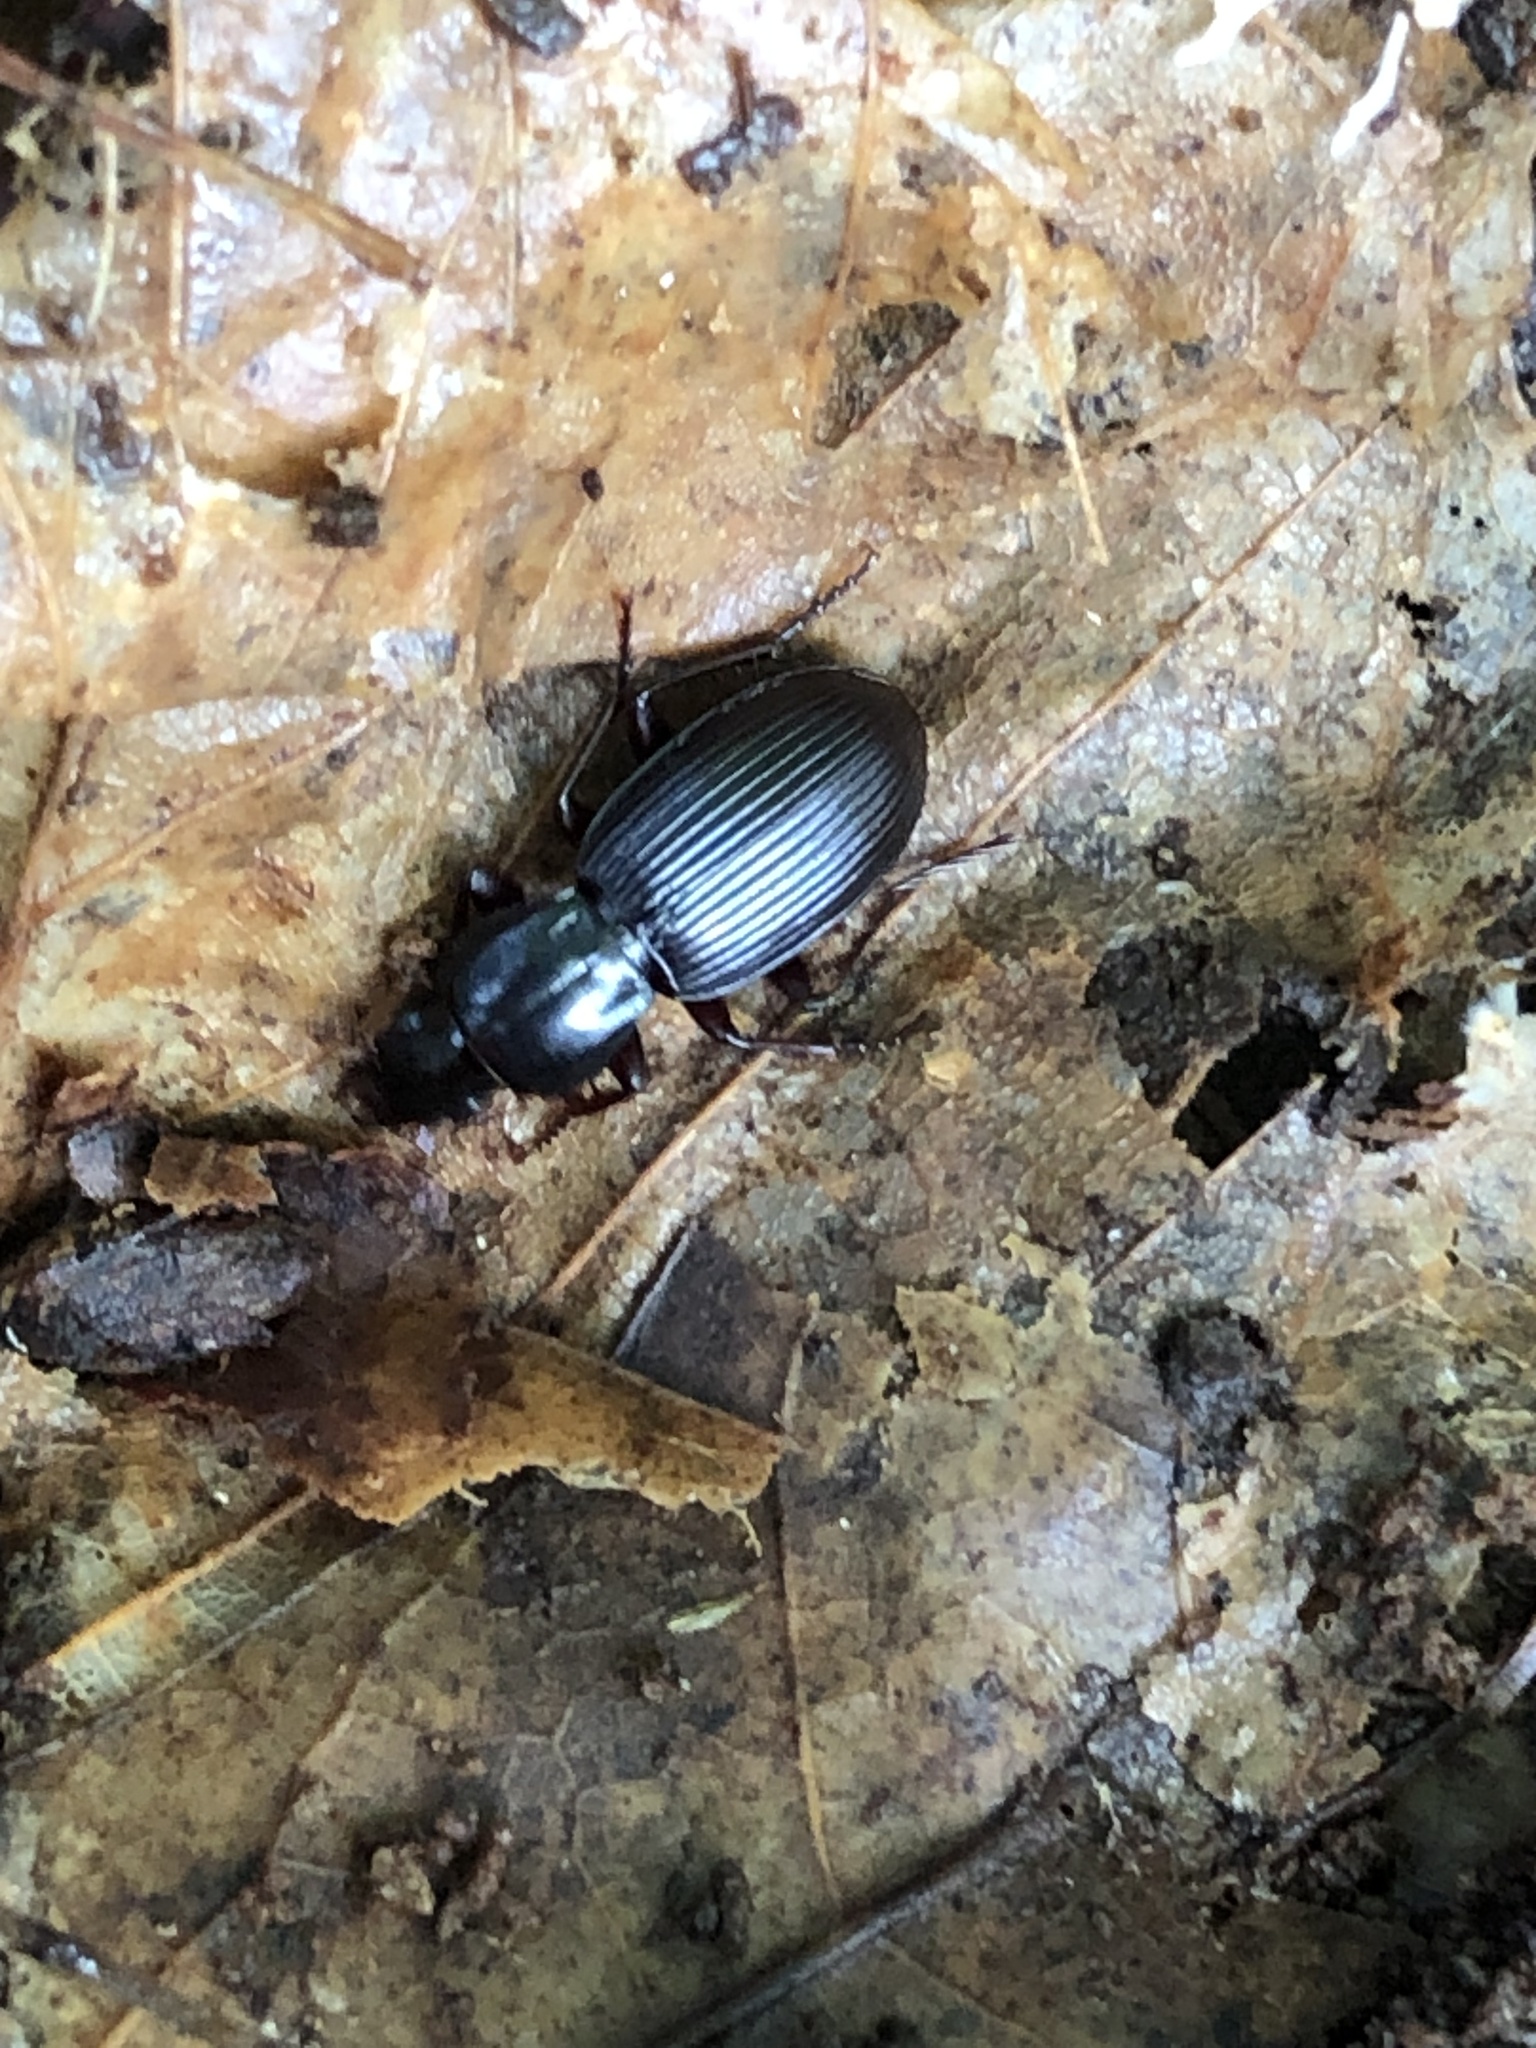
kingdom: Animalia
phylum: Arthropoda
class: Insecta
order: Coleoptera
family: Carabidae
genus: Pterostichus
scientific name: Pterostichus tristis
